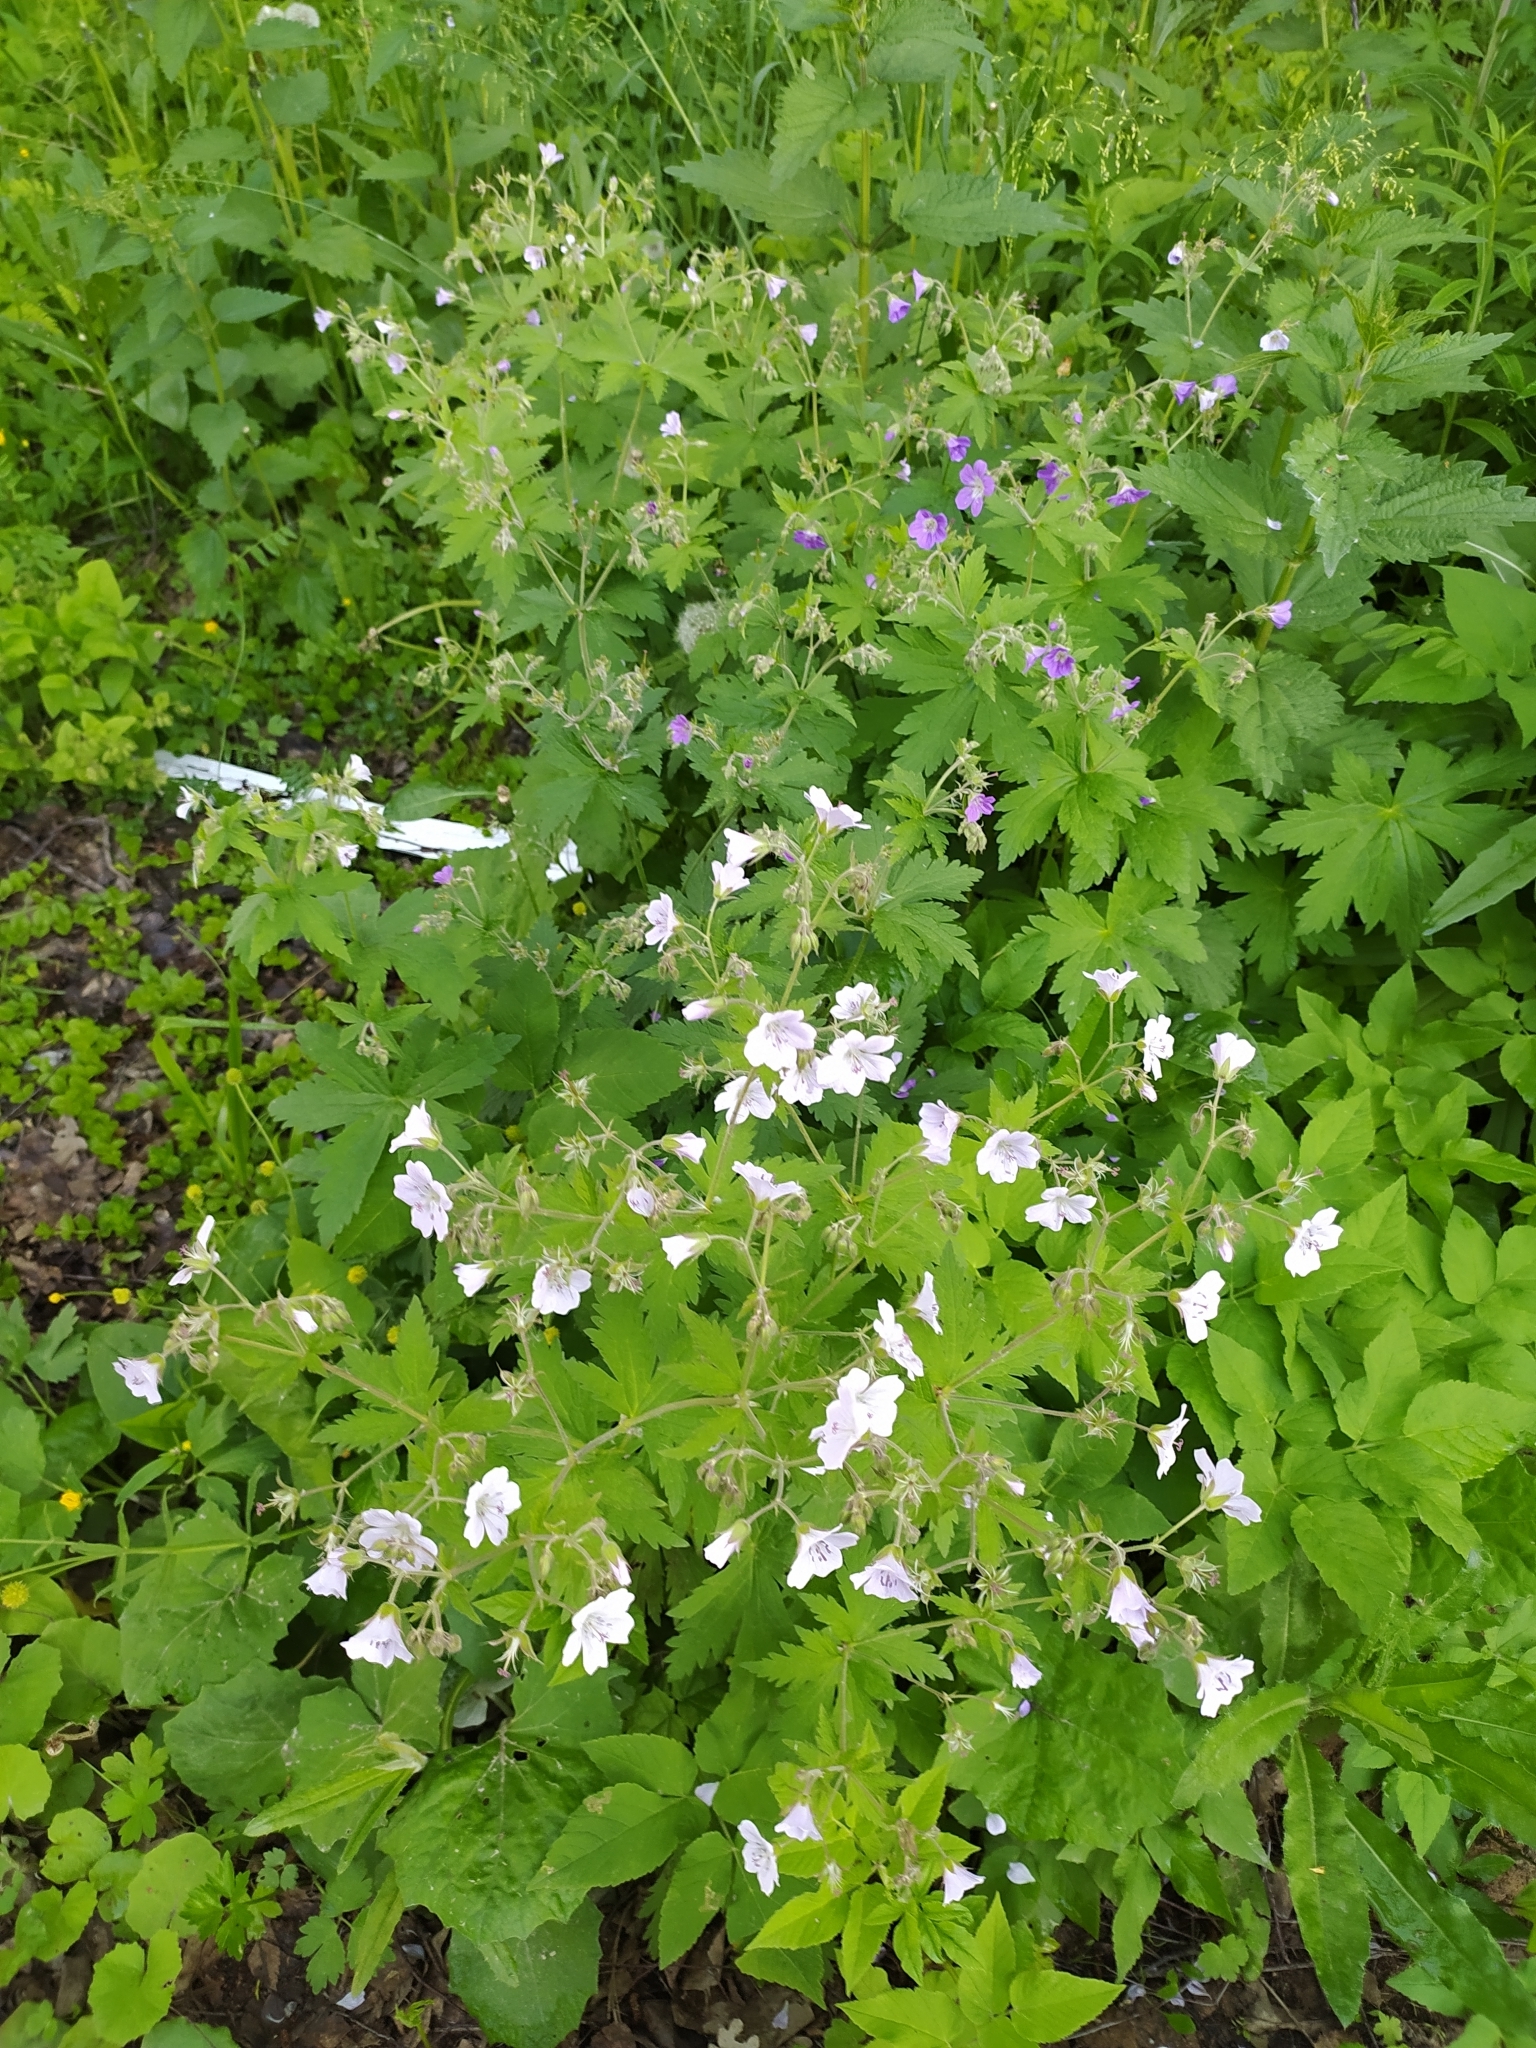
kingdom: Plantae
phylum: Tracheophyta
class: Magnoliopsida
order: Geraniales
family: Geraniaceae
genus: Geranium
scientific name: Geranium sylvaticum
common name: Wood crane's-bill
